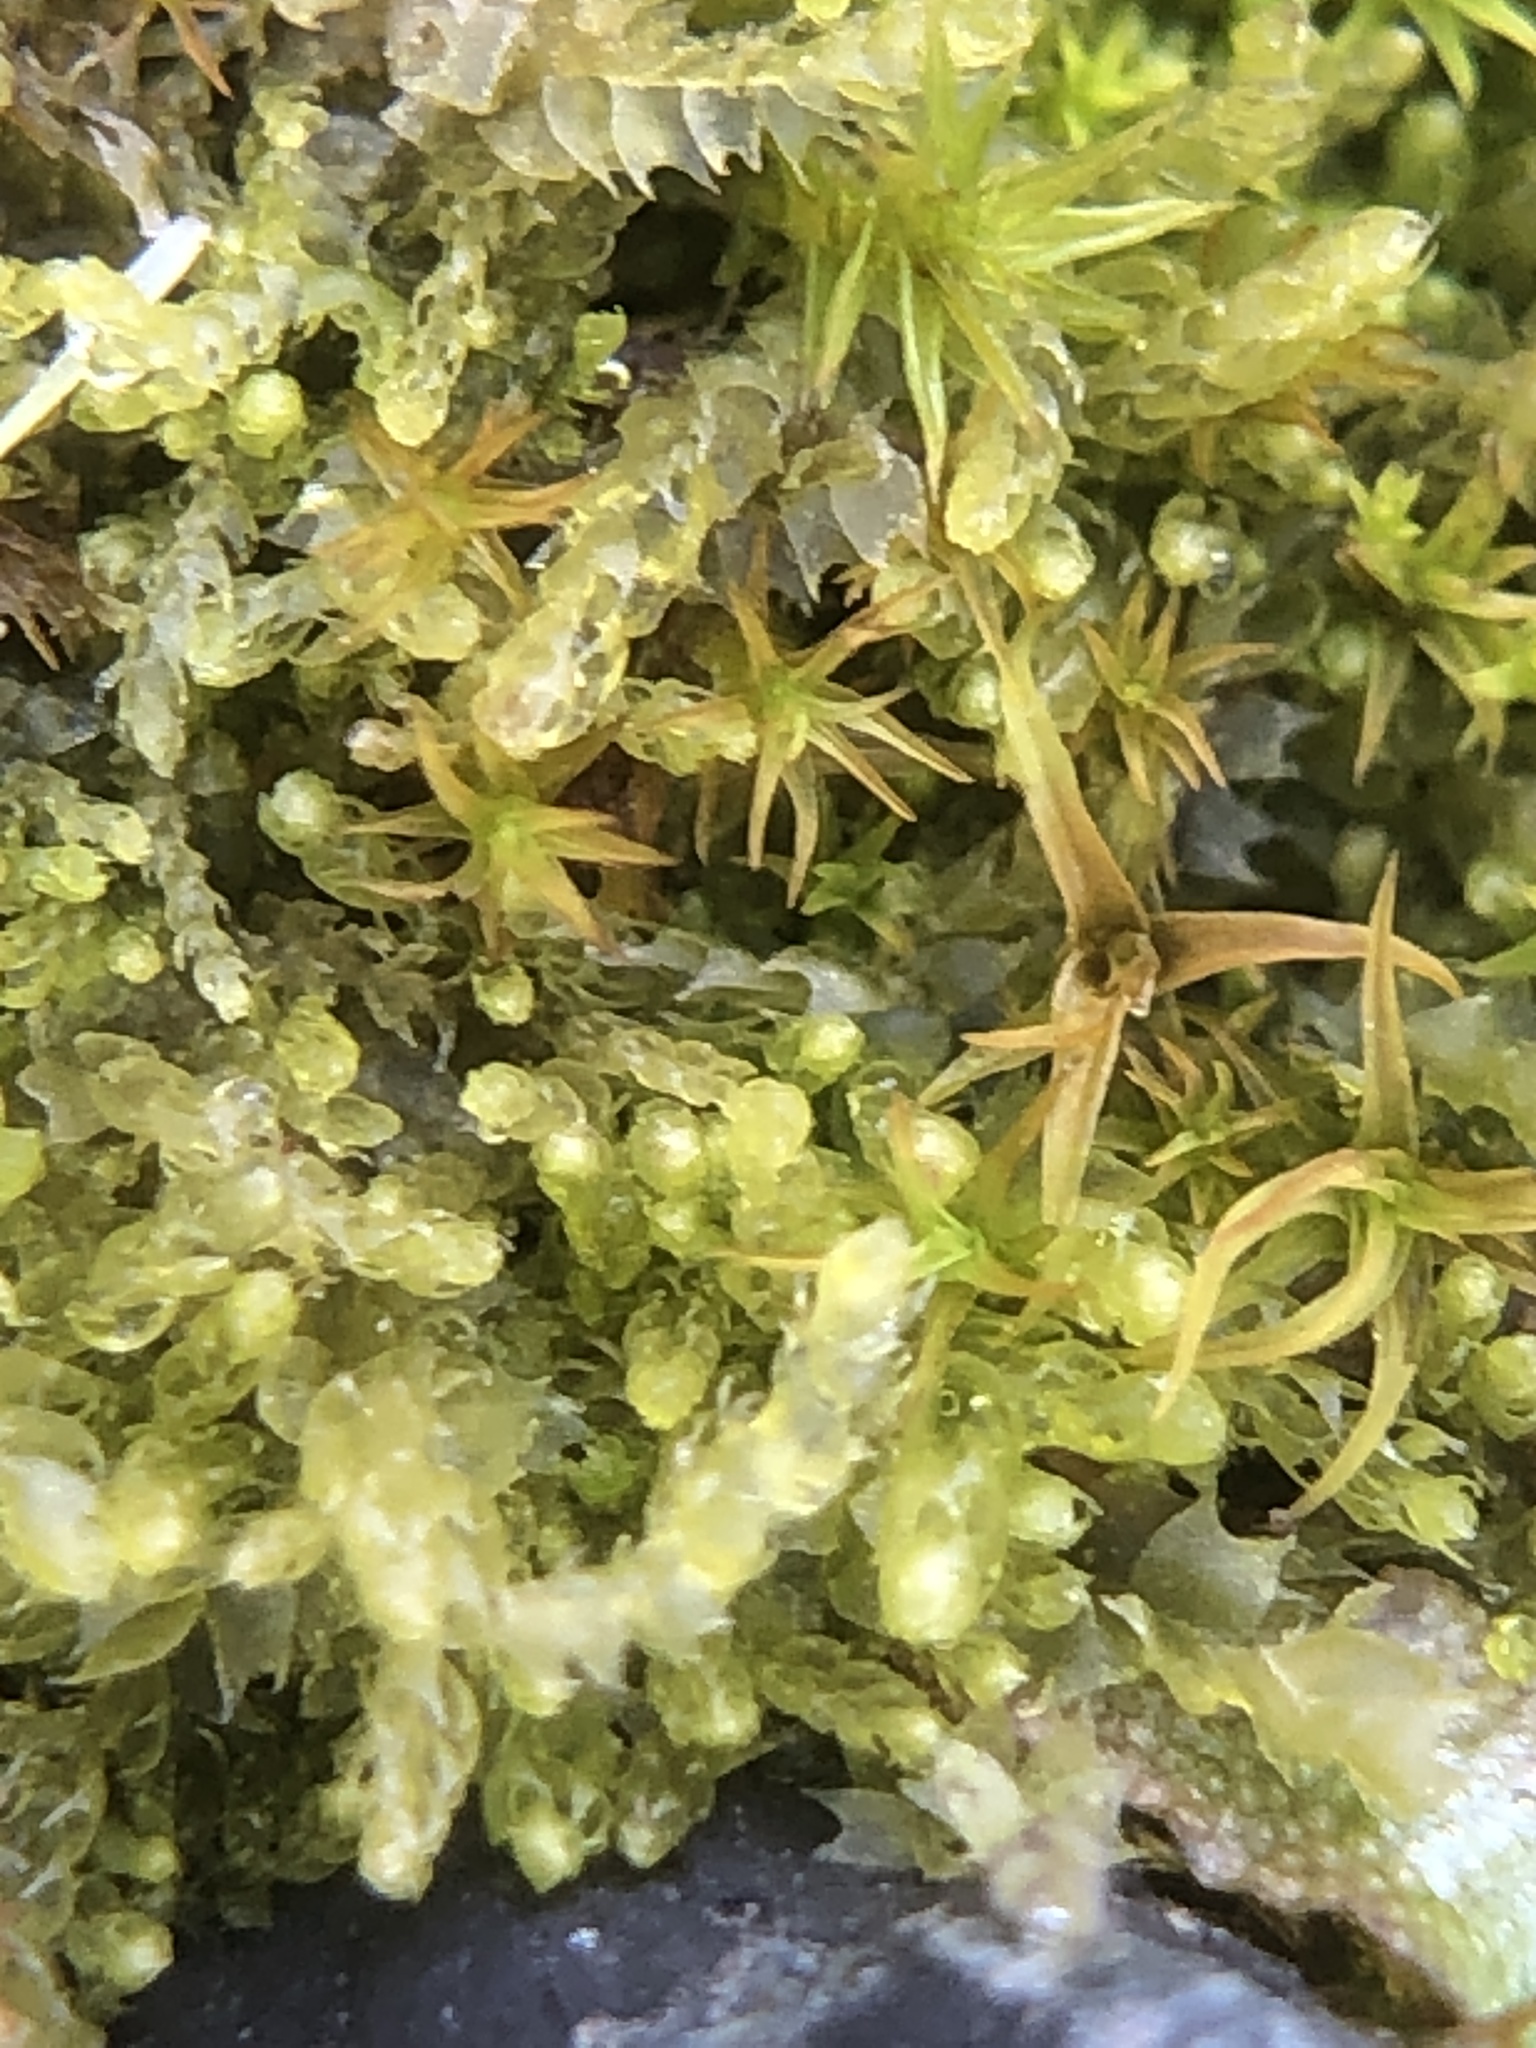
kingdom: Plantae
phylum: Marchantiophyta
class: Jungermanniopsida
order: Jungermanniales
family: Cephaloziaceae
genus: Cephalozia
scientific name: Cephalozia bicuspidata
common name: Two-horned pincerwort
